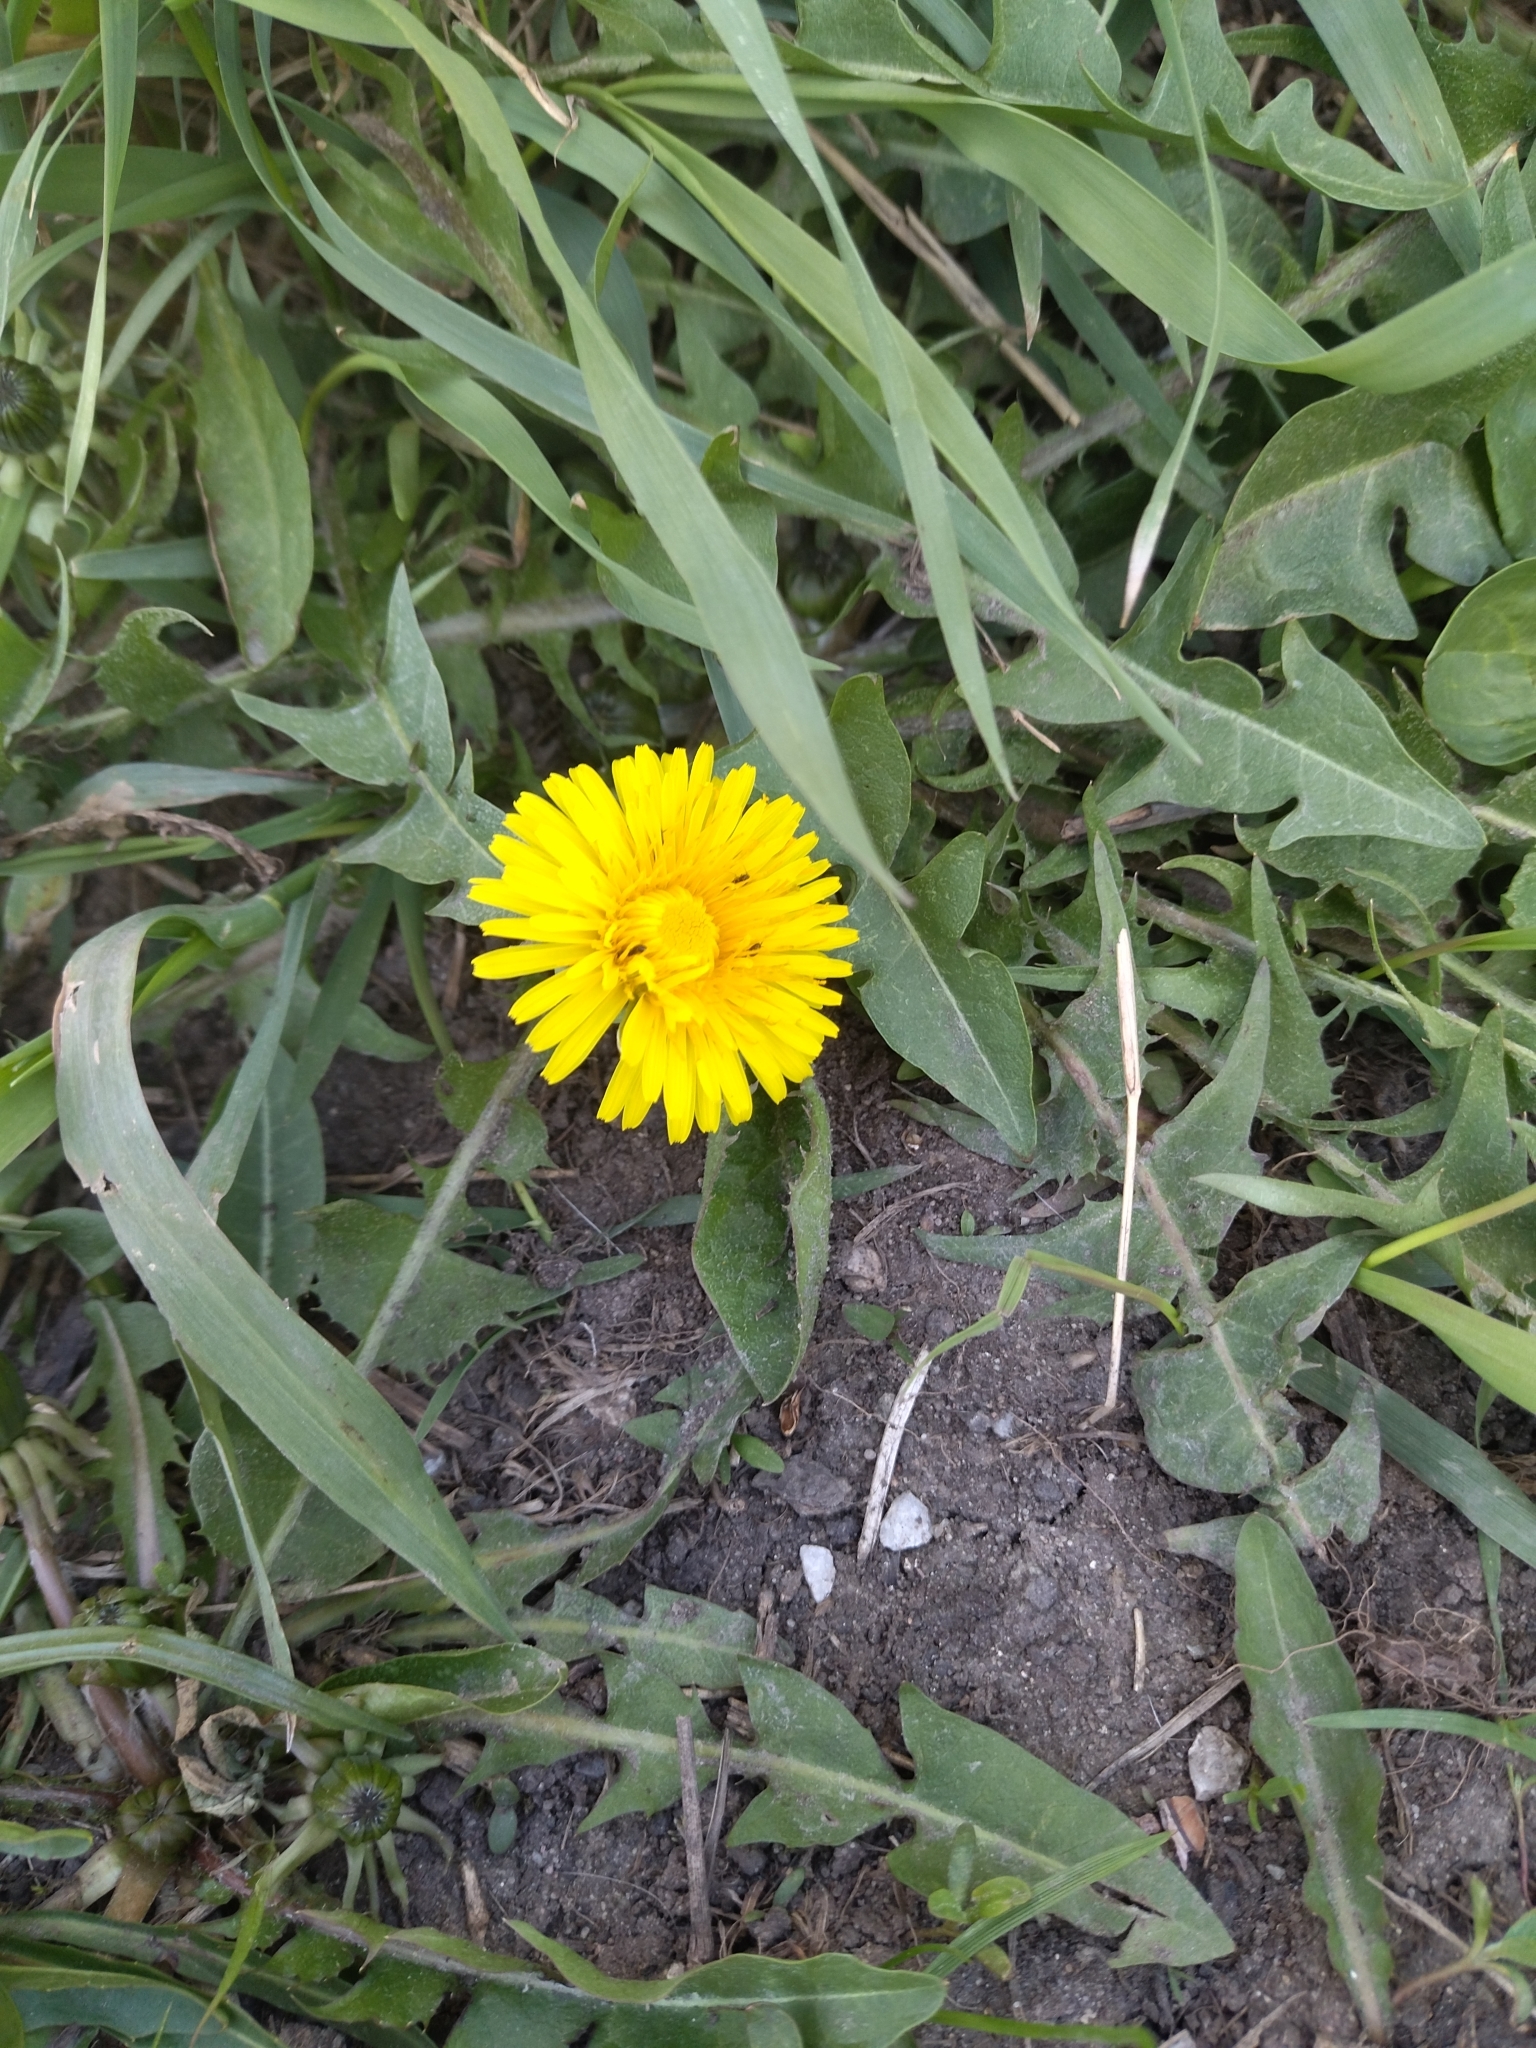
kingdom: Plantae
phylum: Tracheophyta
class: Magnoliopsida
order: Asterales
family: Asteraceae
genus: Taraxacum
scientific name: Taraxacum officinale
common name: Common dandelion
